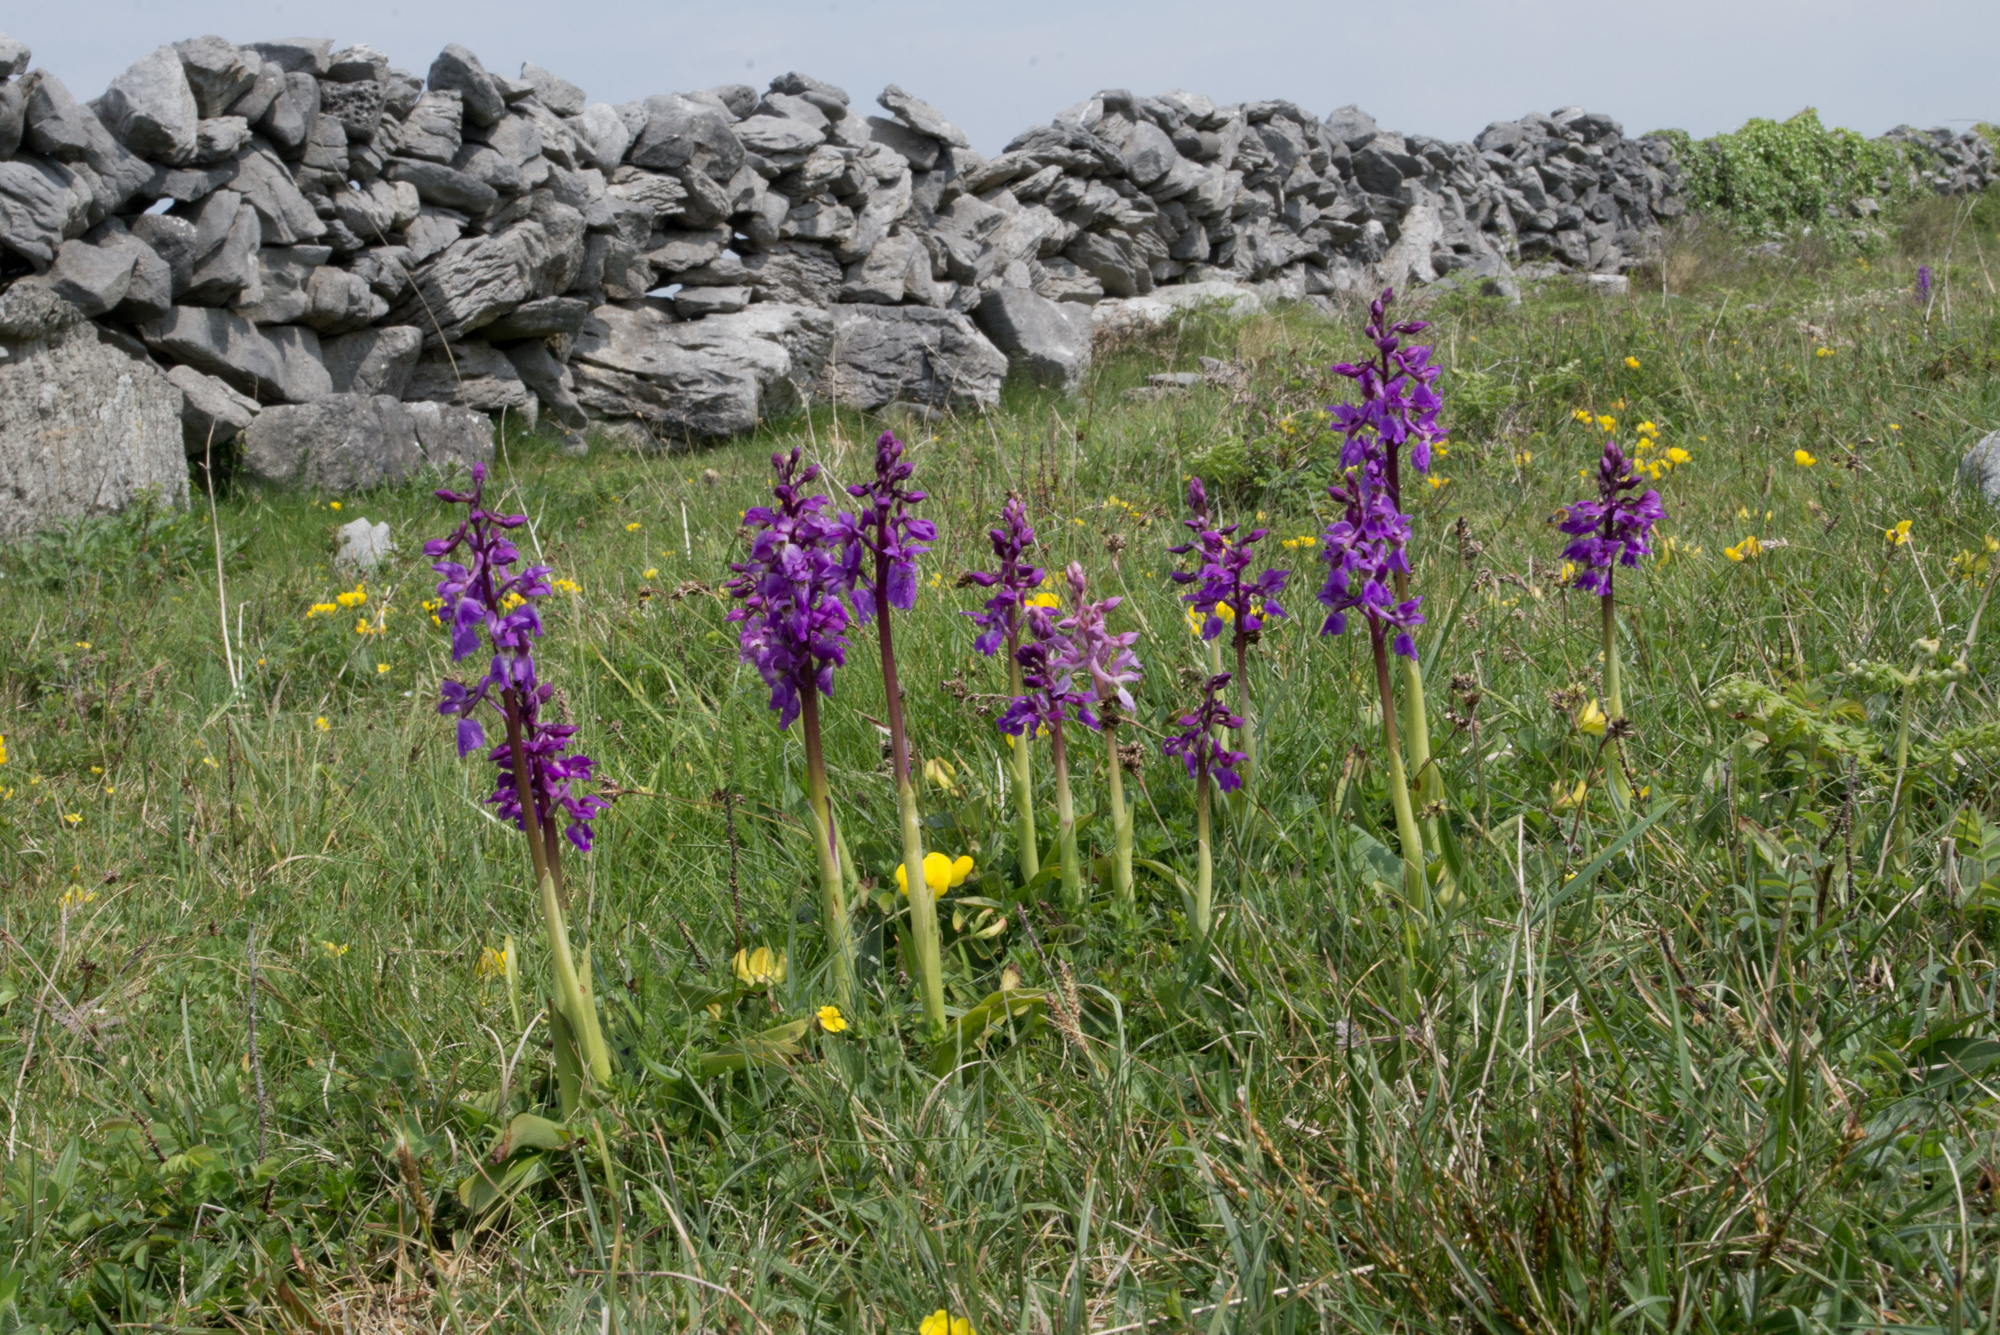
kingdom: Plantae
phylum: Tracheophyta
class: Liliopsida
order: Asparagales
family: Orchidaceae
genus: Orchis
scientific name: Orchis mascula
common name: Early-purple orchid
